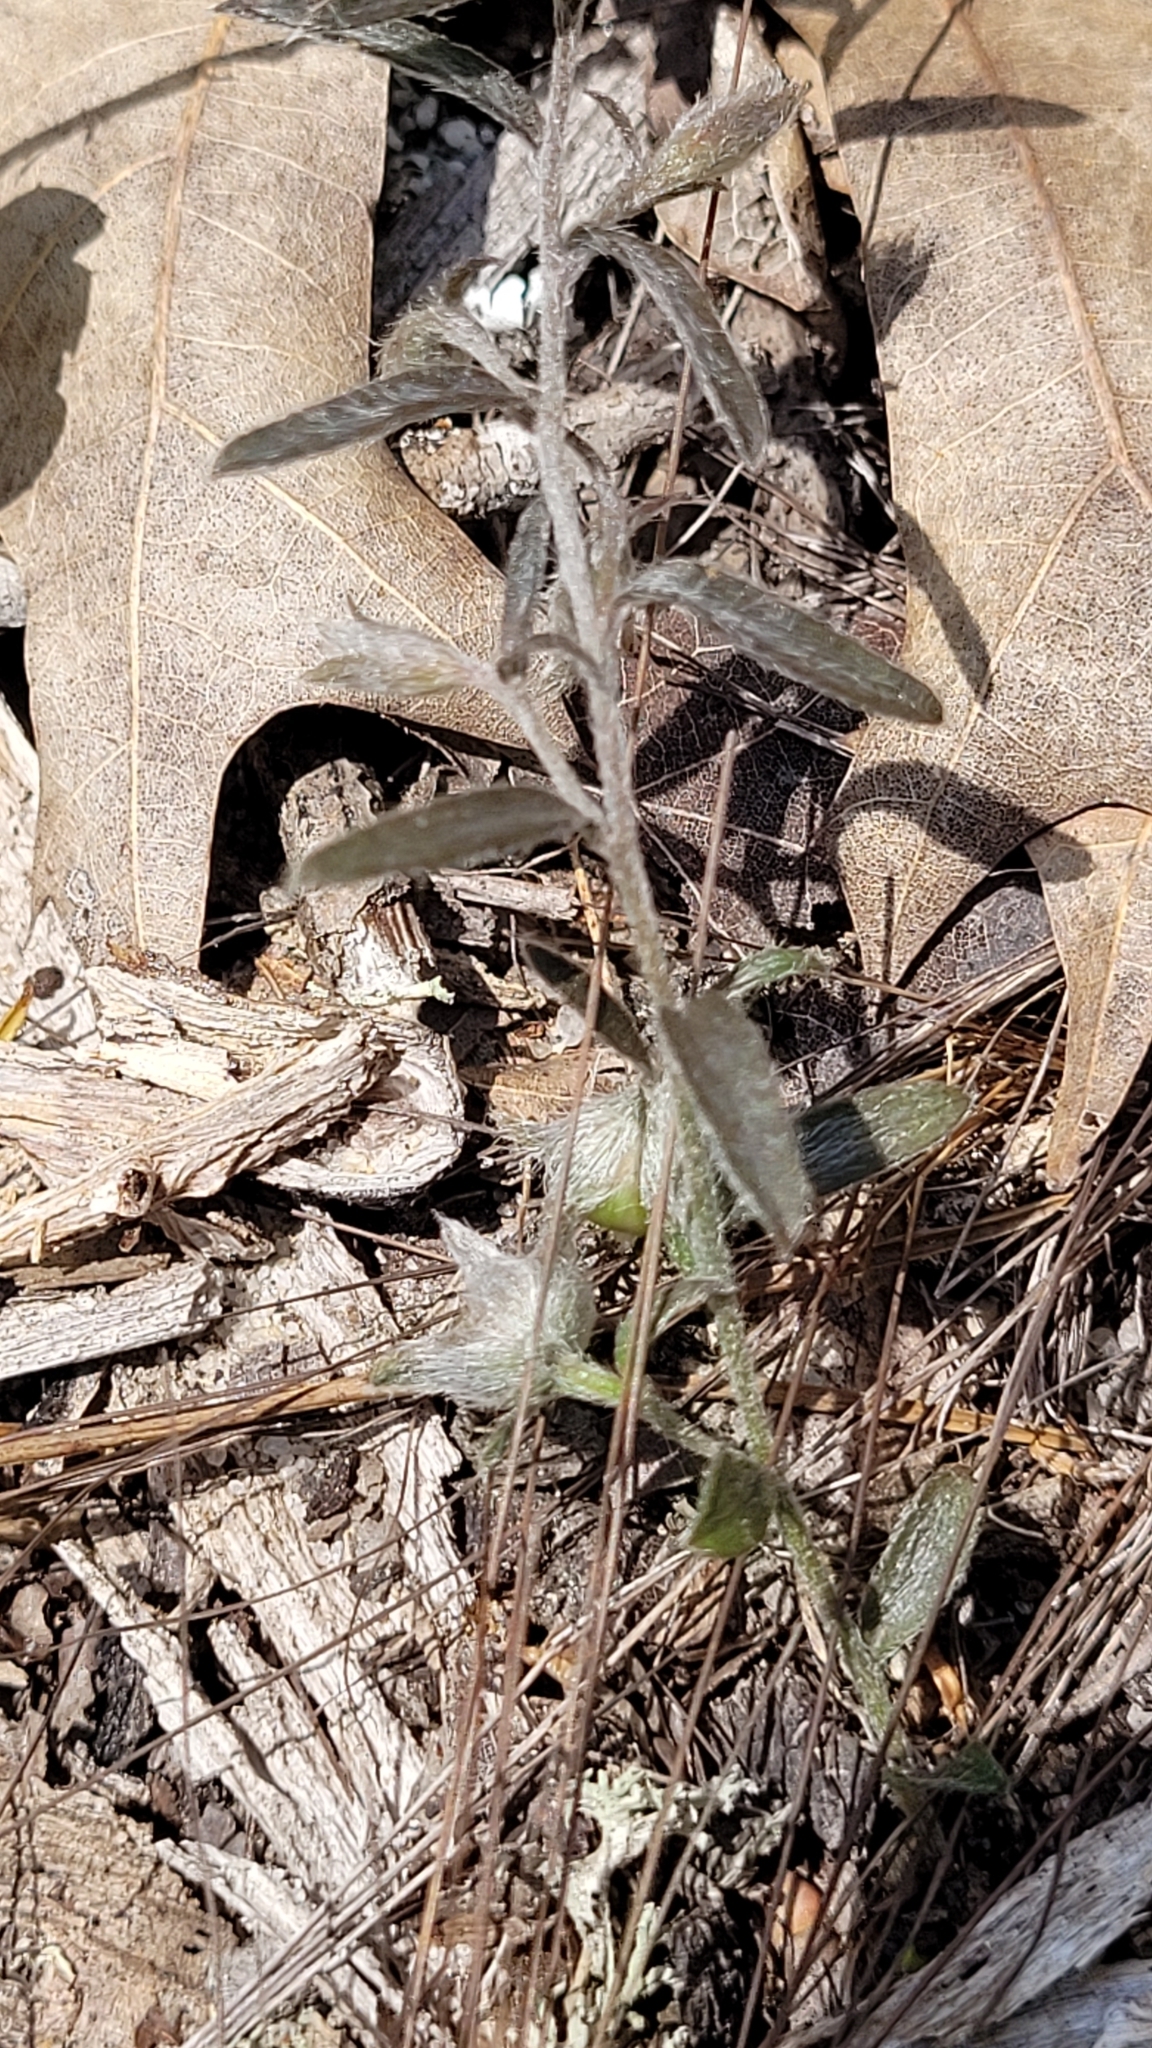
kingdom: Plantae
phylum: Tracheophyta
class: Magnoliopsida
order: Solanales
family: Convolvulaceae
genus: Stylisma
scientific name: Stylisma abdita
